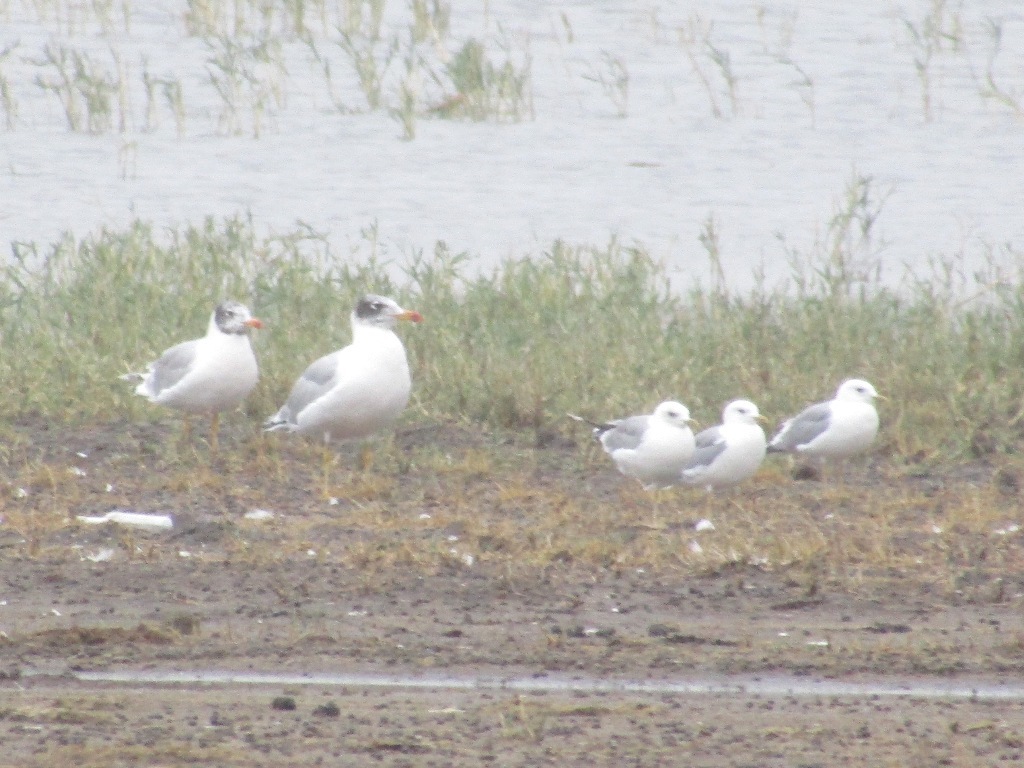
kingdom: Animalia
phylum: Chordata
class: Aves
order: Charadriiformes
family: Laridae
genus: Ichthyaetus
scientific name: Ichthyaetus ichthyaetus
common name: Pallas's gull
